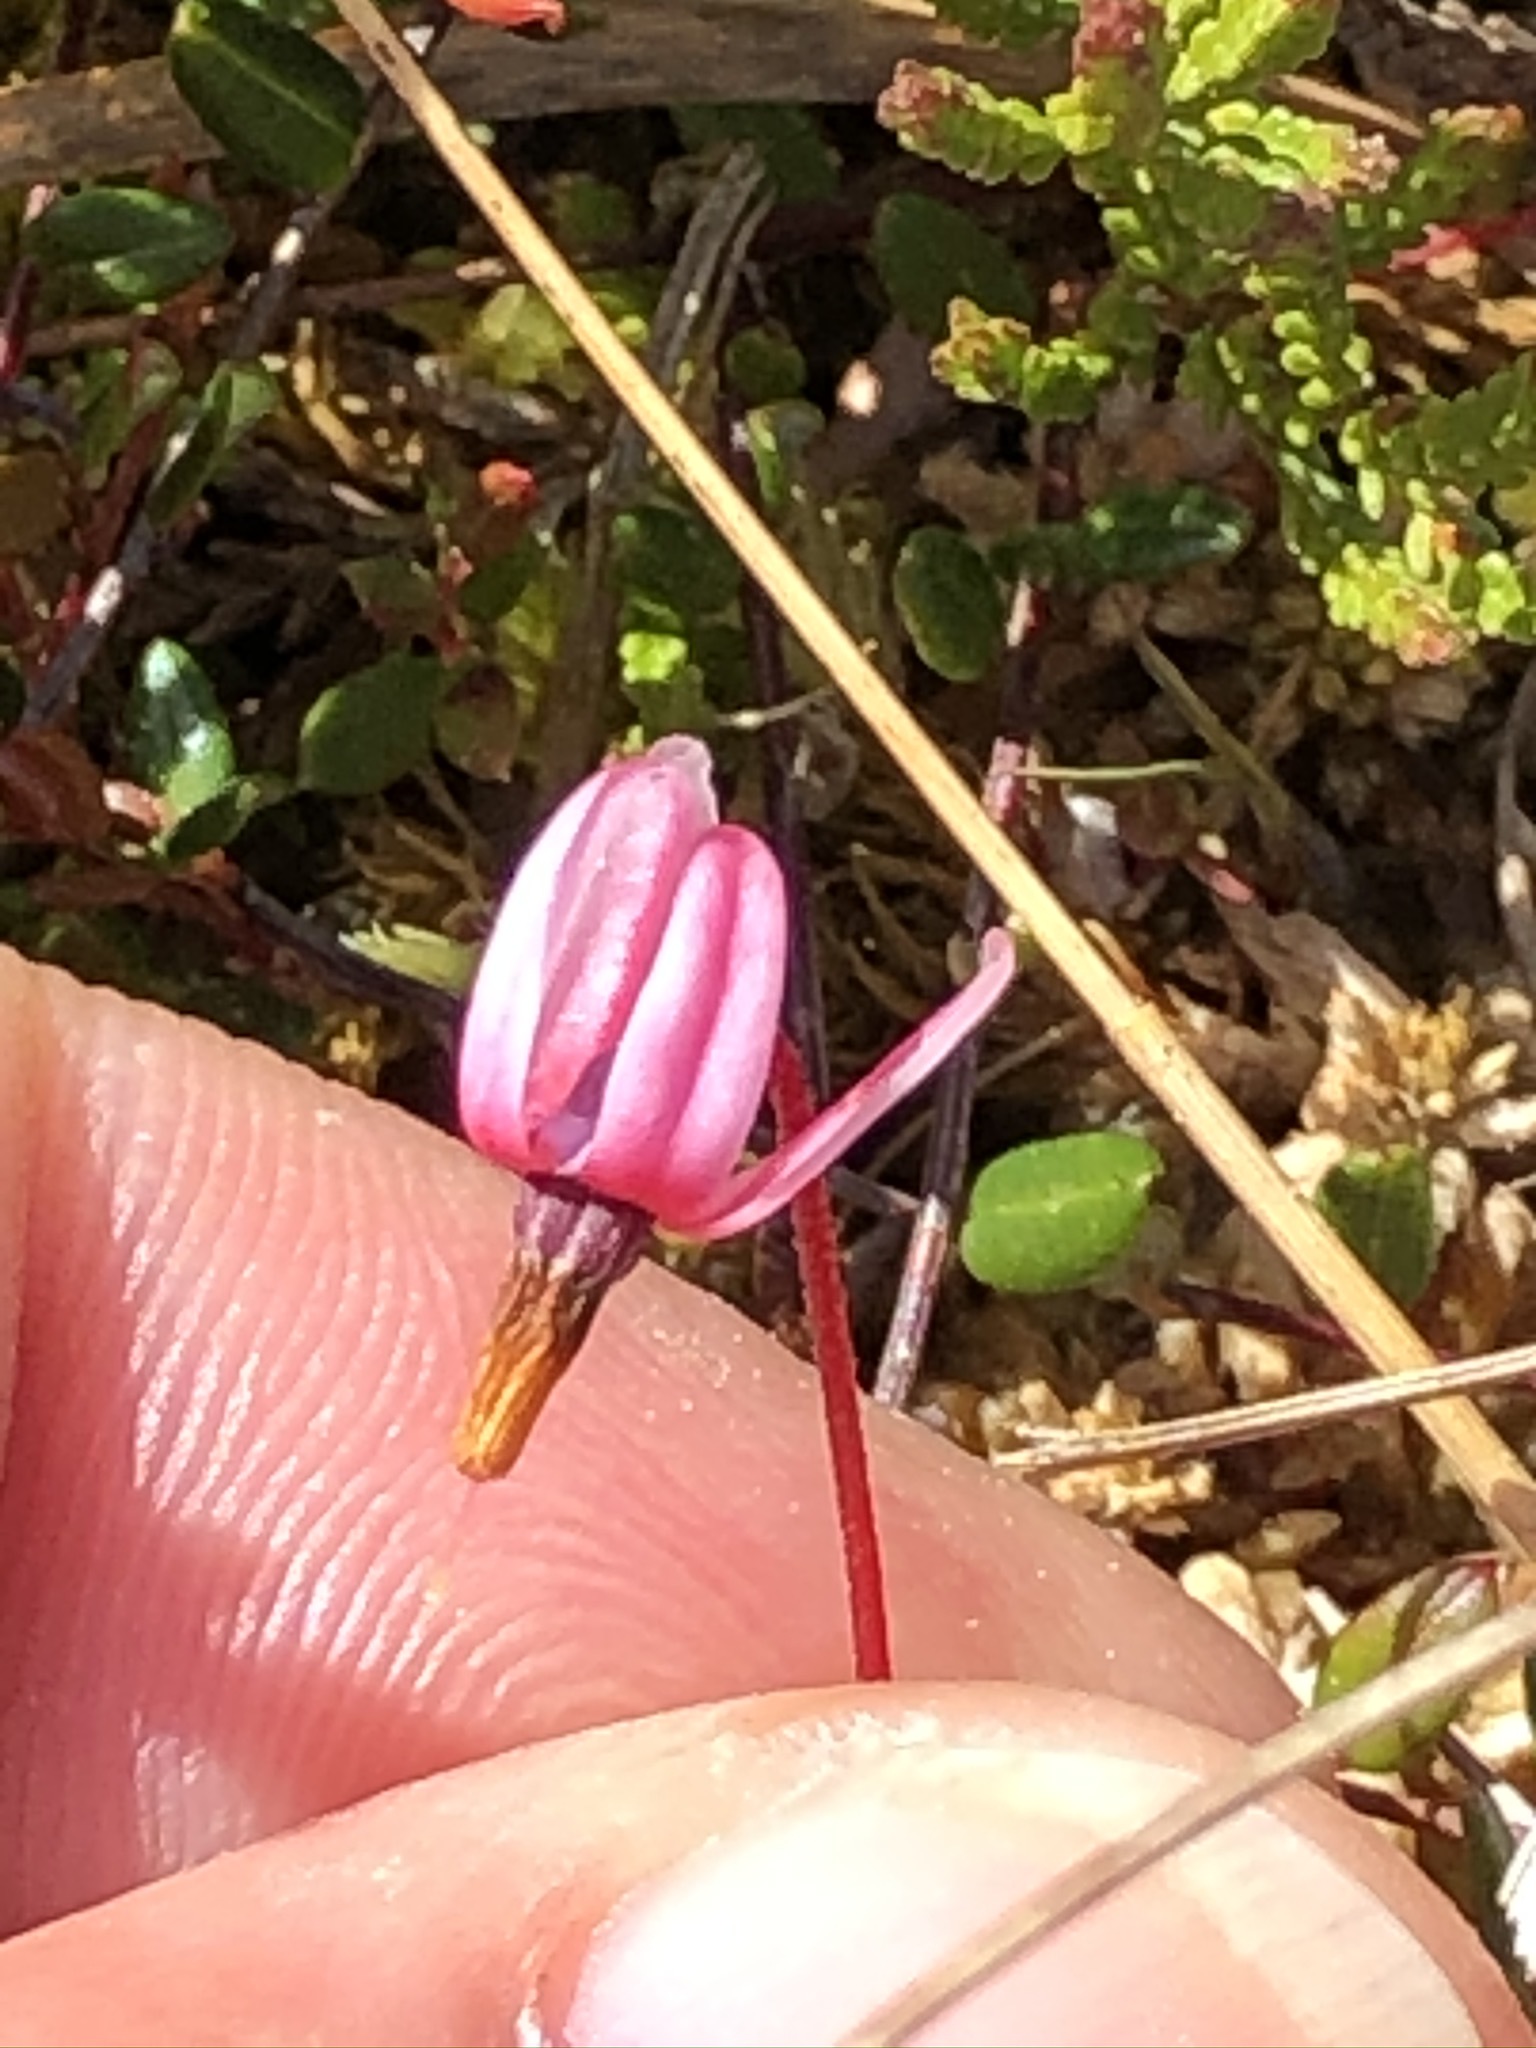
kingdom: Plantae
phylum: Tracheophyta
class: Magnoliopsida
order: Ericales
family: Ericaceae
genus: Vaccinium
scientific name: Vaccinium oxycoccos
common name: Cranberry
